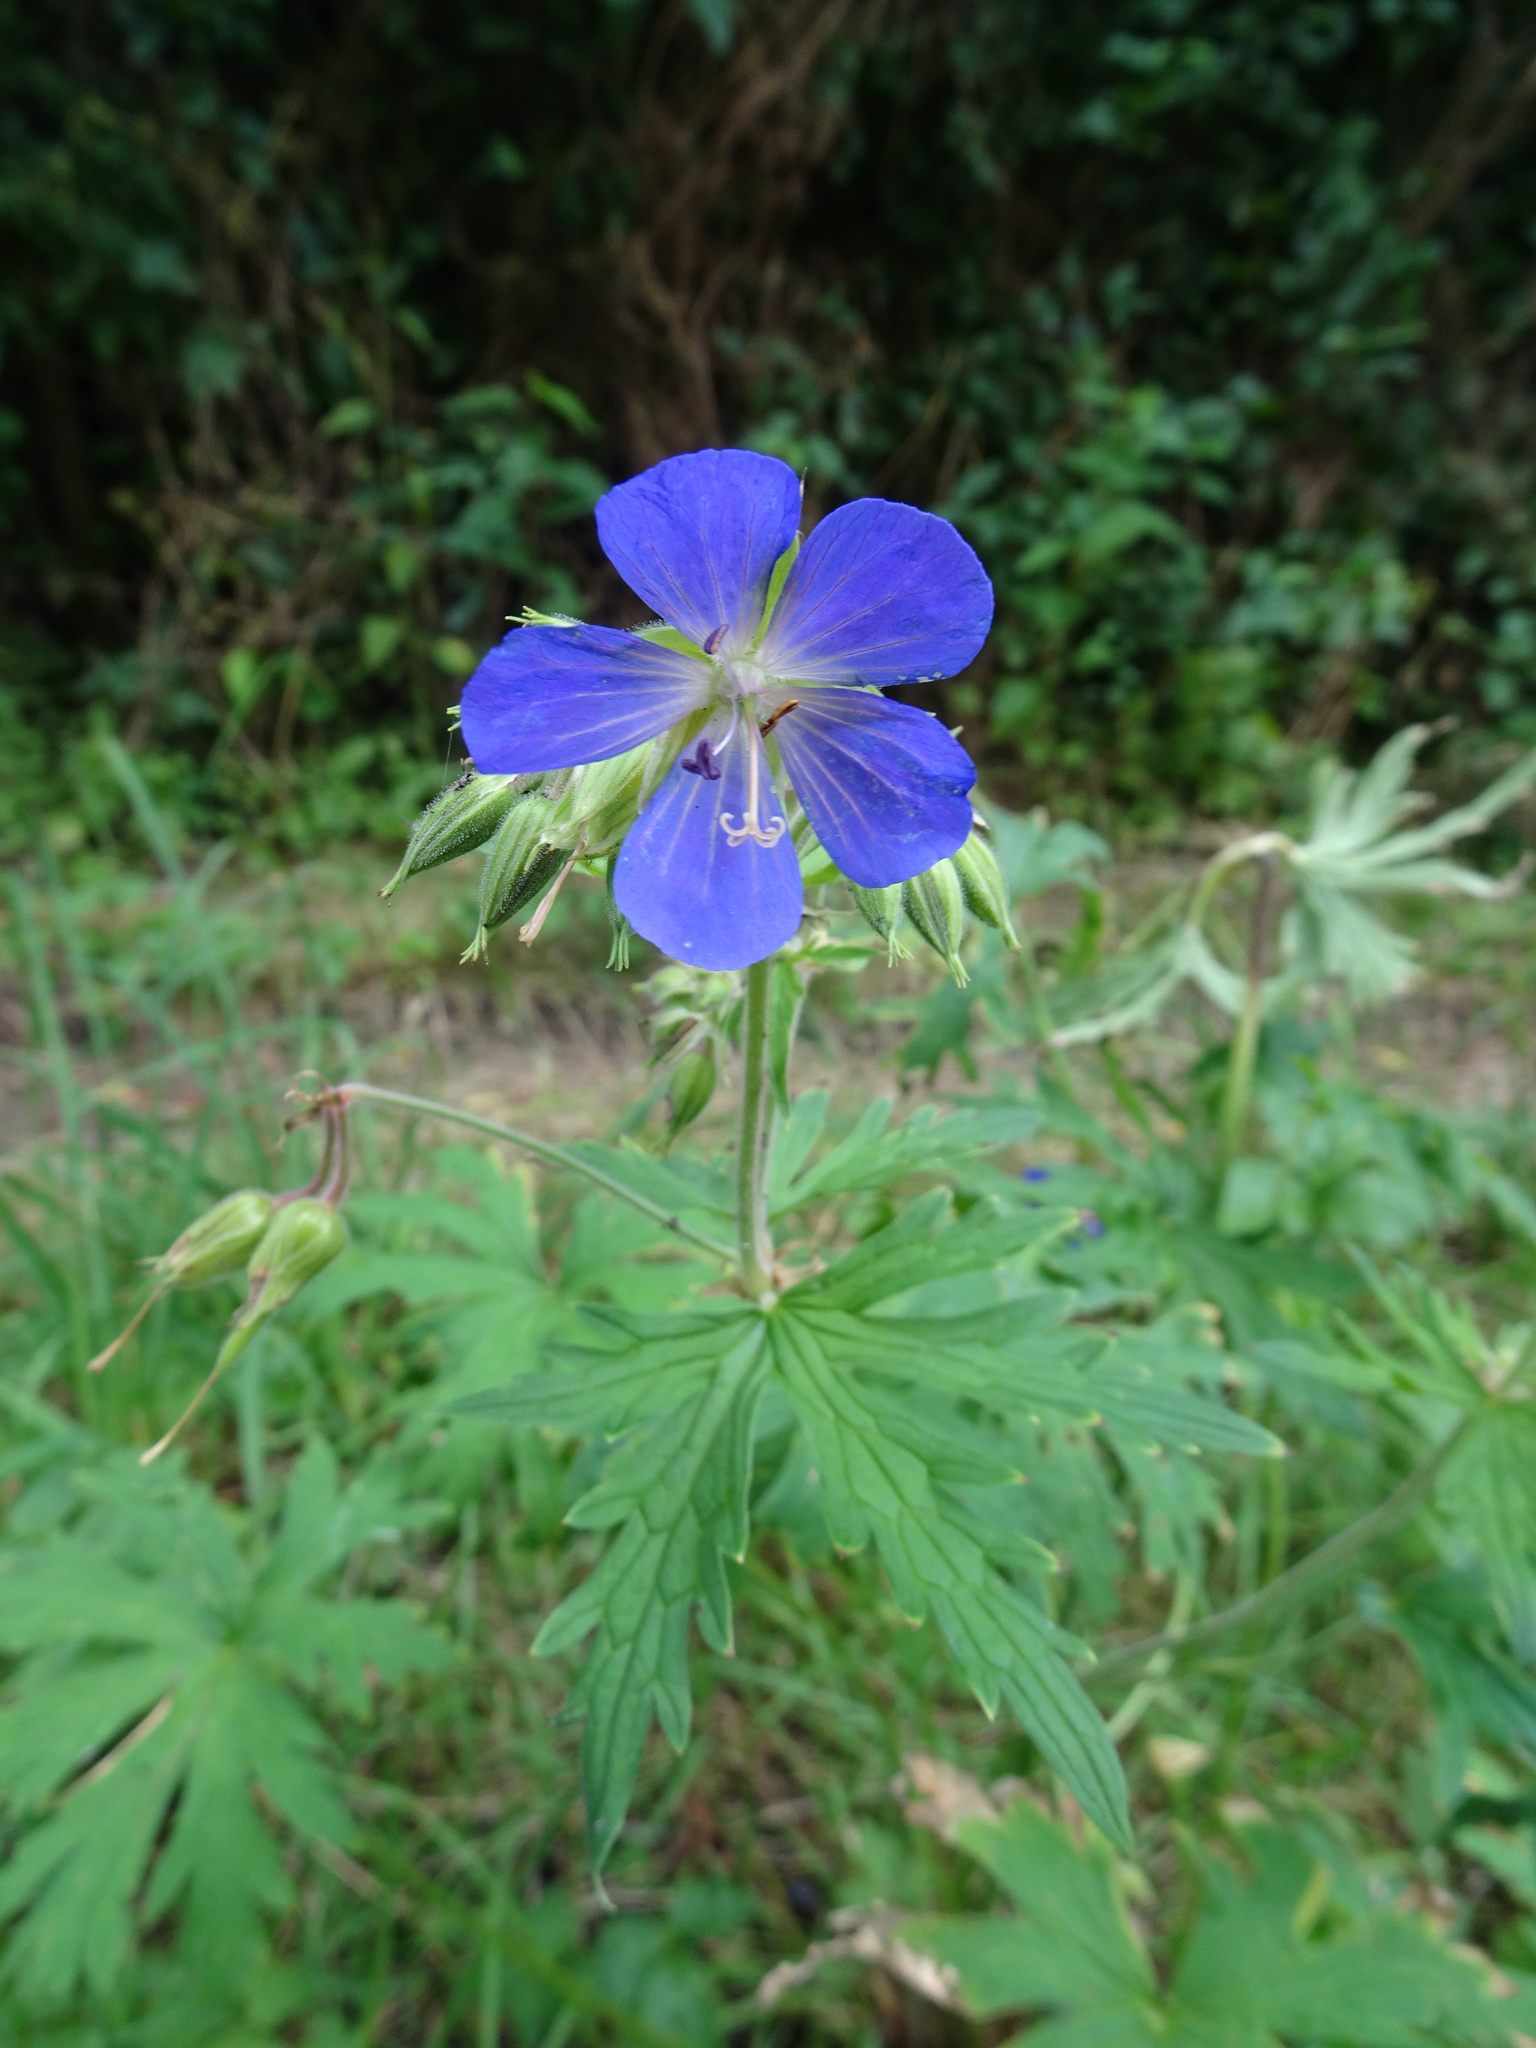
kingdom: Plantae
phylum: Tracheophyta
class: Magnoliopsida
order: Geraniales
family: Geraniaceae
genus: Geranium
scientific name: Geranium pratense
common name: Meadow crane's-bill
